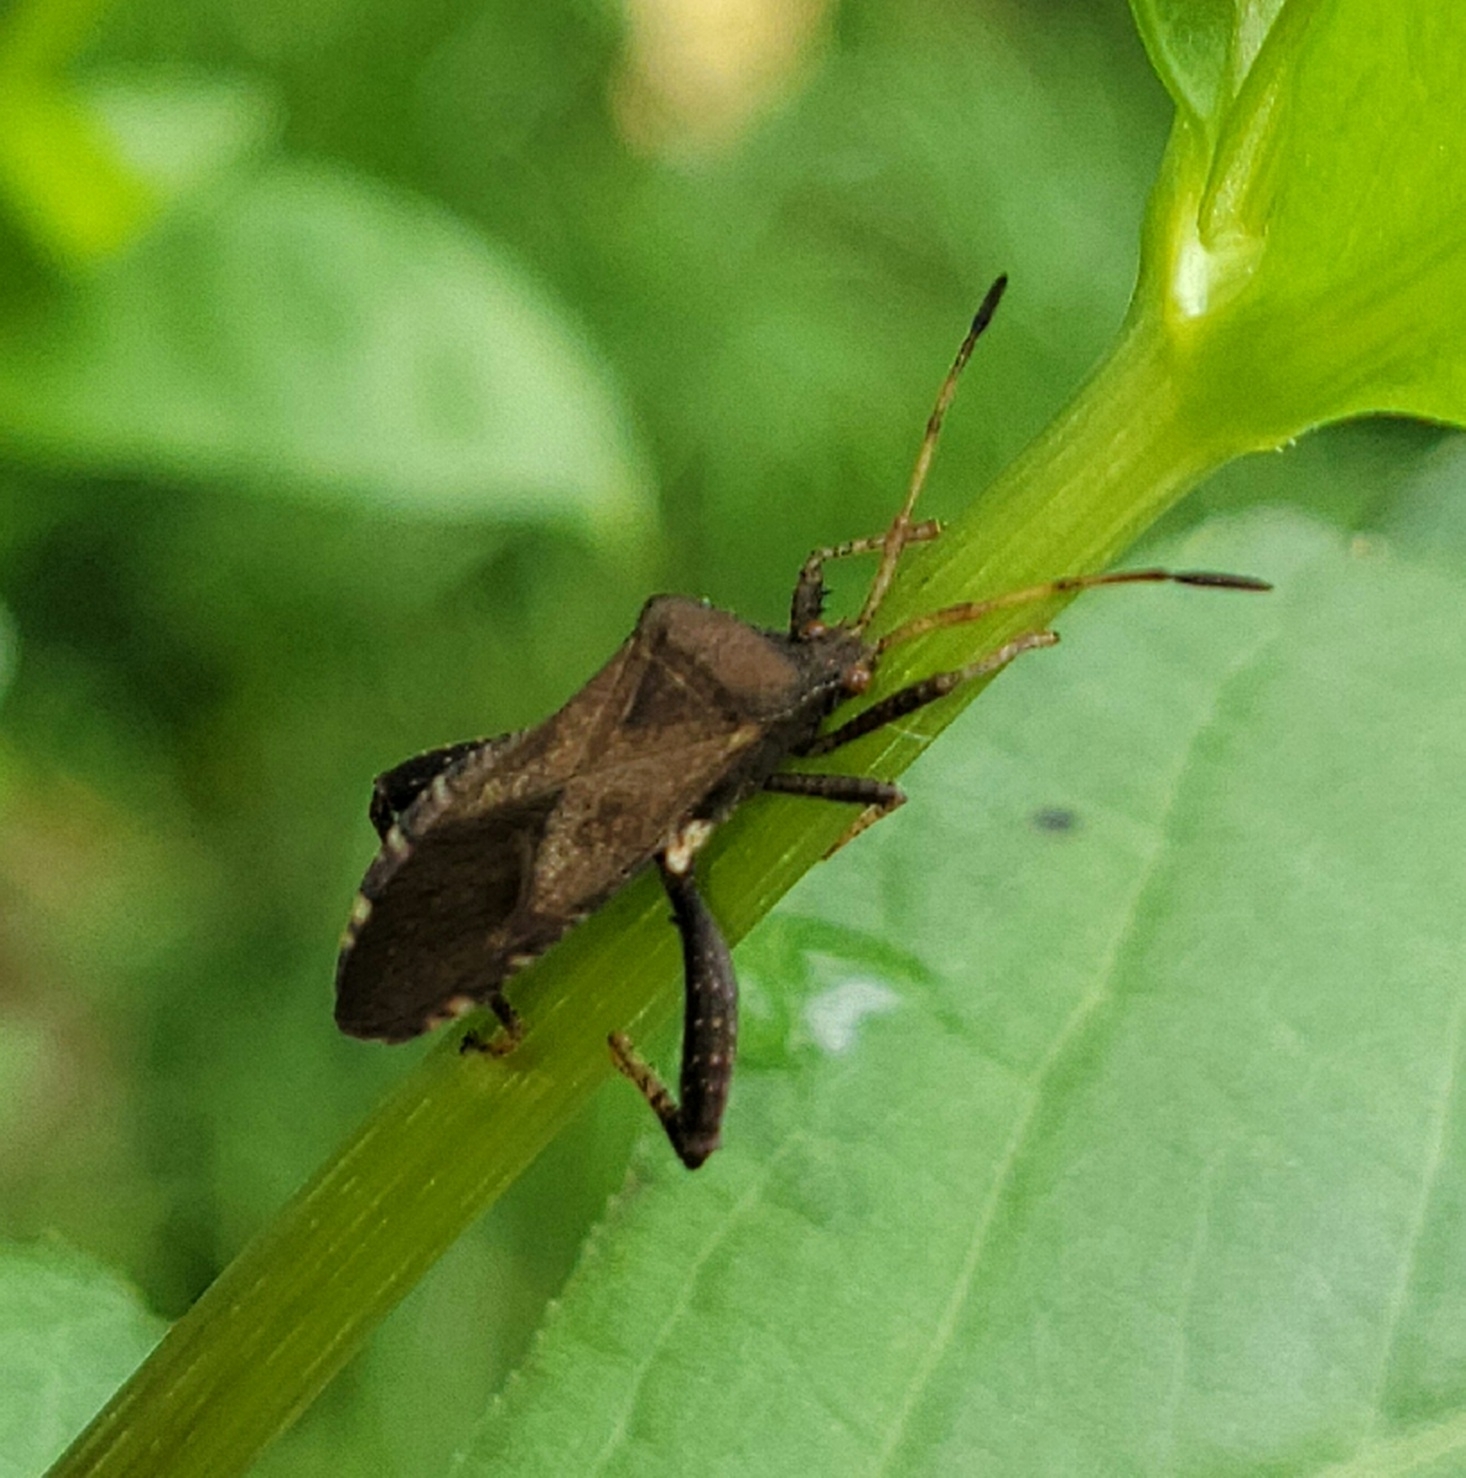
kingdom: Animalia
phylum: Arthropoda
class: Insecta
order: Hemiptera
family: Coreidae
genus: Euthochtha
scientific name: Euthochtha galeator
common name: Helmeted squash bug
